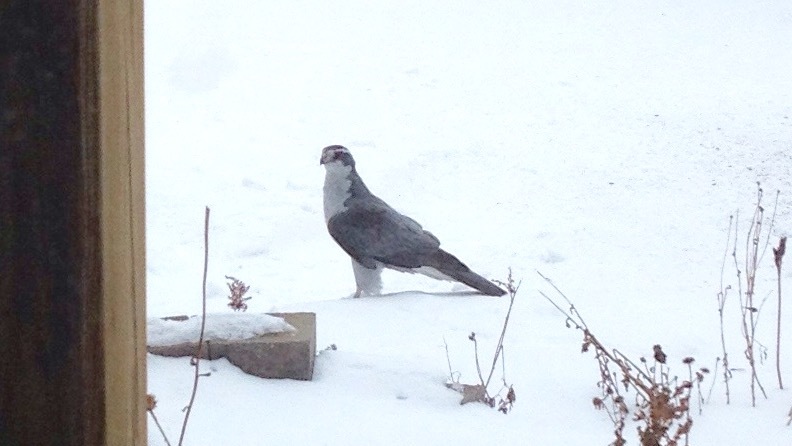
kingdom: Animalia
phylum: Chordata
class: Aves
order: Accipitriformes
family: Accipitridae
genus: Accipiter
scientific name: Accipiter gentilis
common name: Northern goshawk
